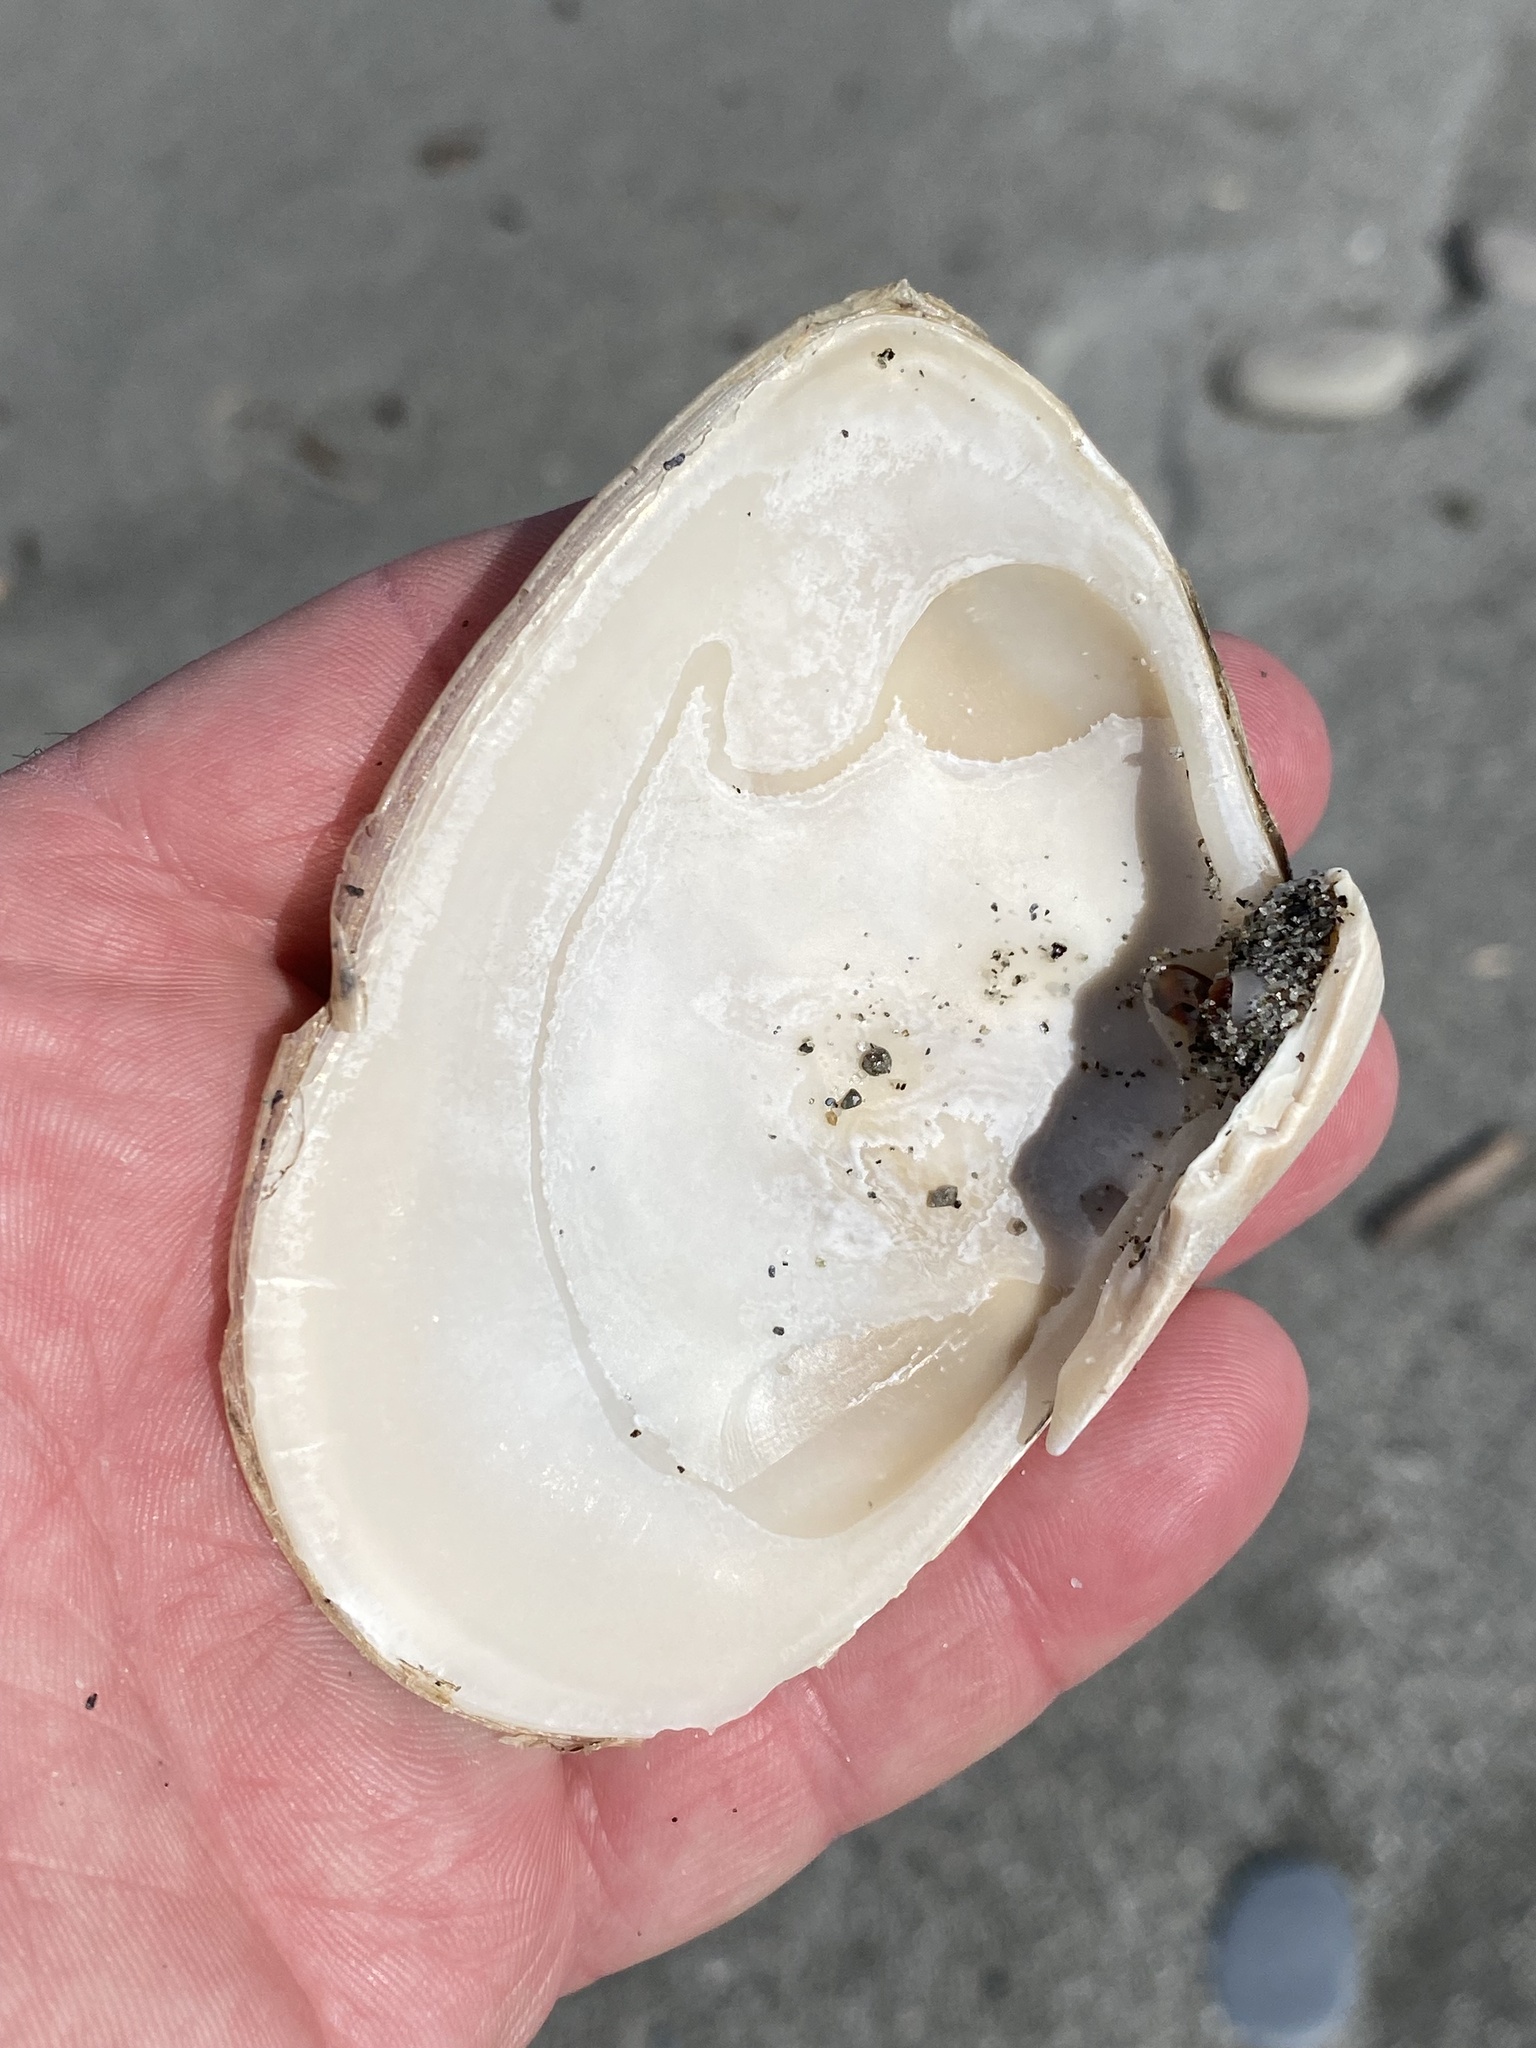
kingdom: Animalia
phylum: Mollusca
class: Bivalvia
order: Venerida
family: Mesodesmatidae
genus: Paphies
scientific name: Paphies donacina
